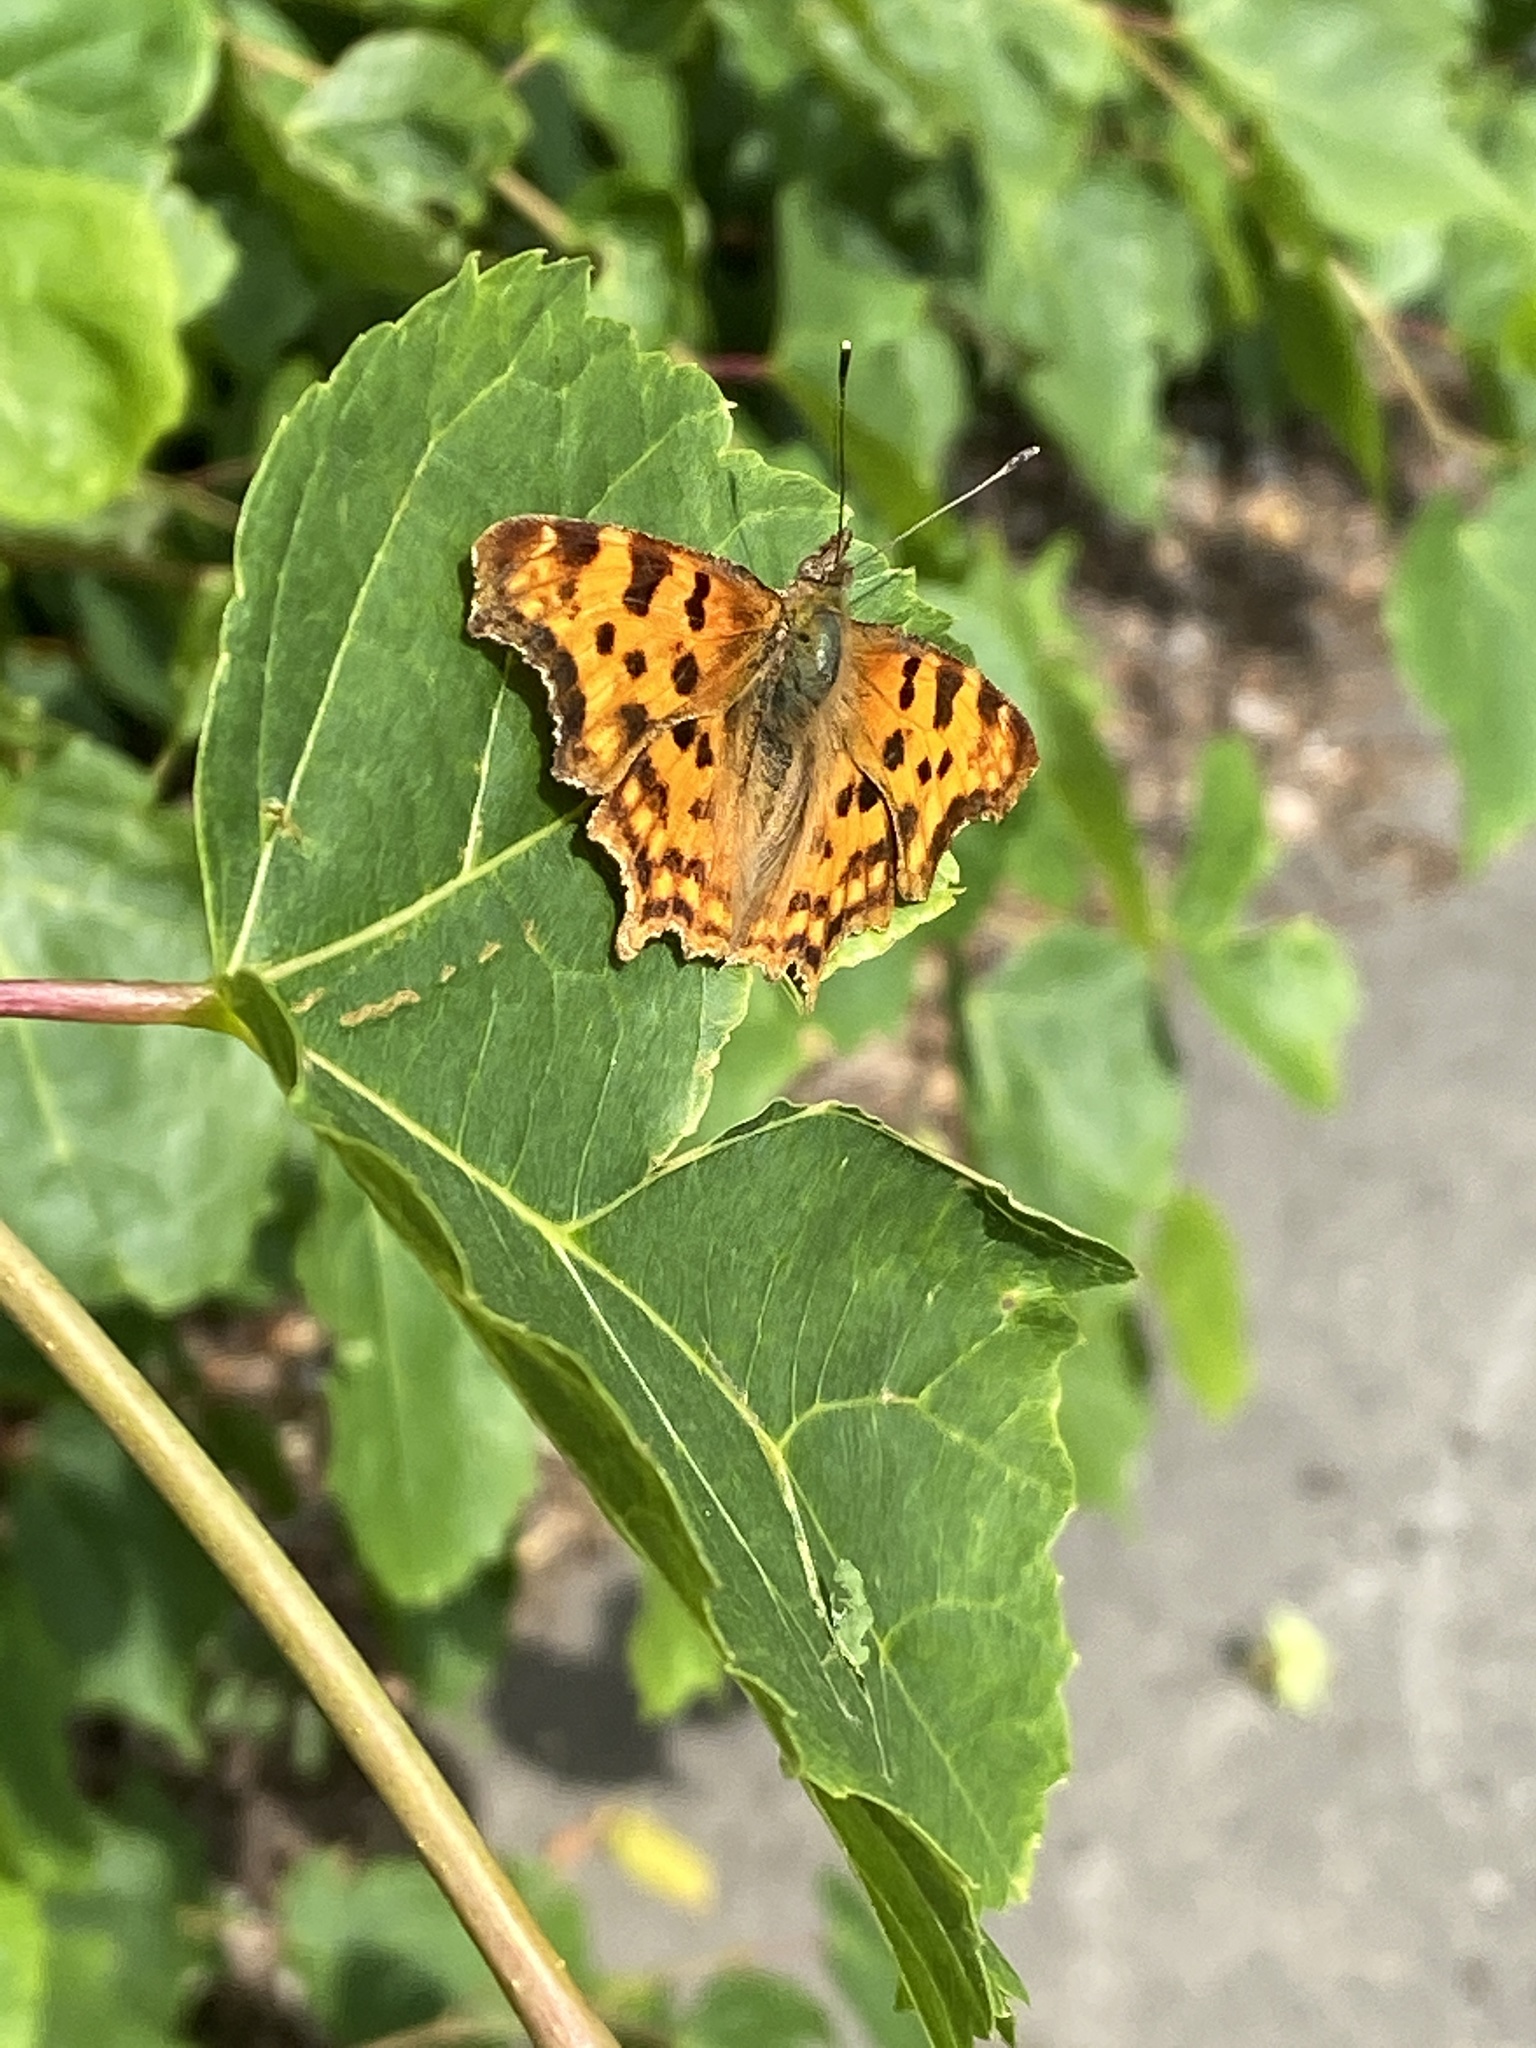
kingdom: Animalia
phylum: Arthropoda
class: Insecta
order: Lepidoptera
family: Nymphalidae
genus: Polygonia
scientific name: Polygonia c-album
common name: Comma
